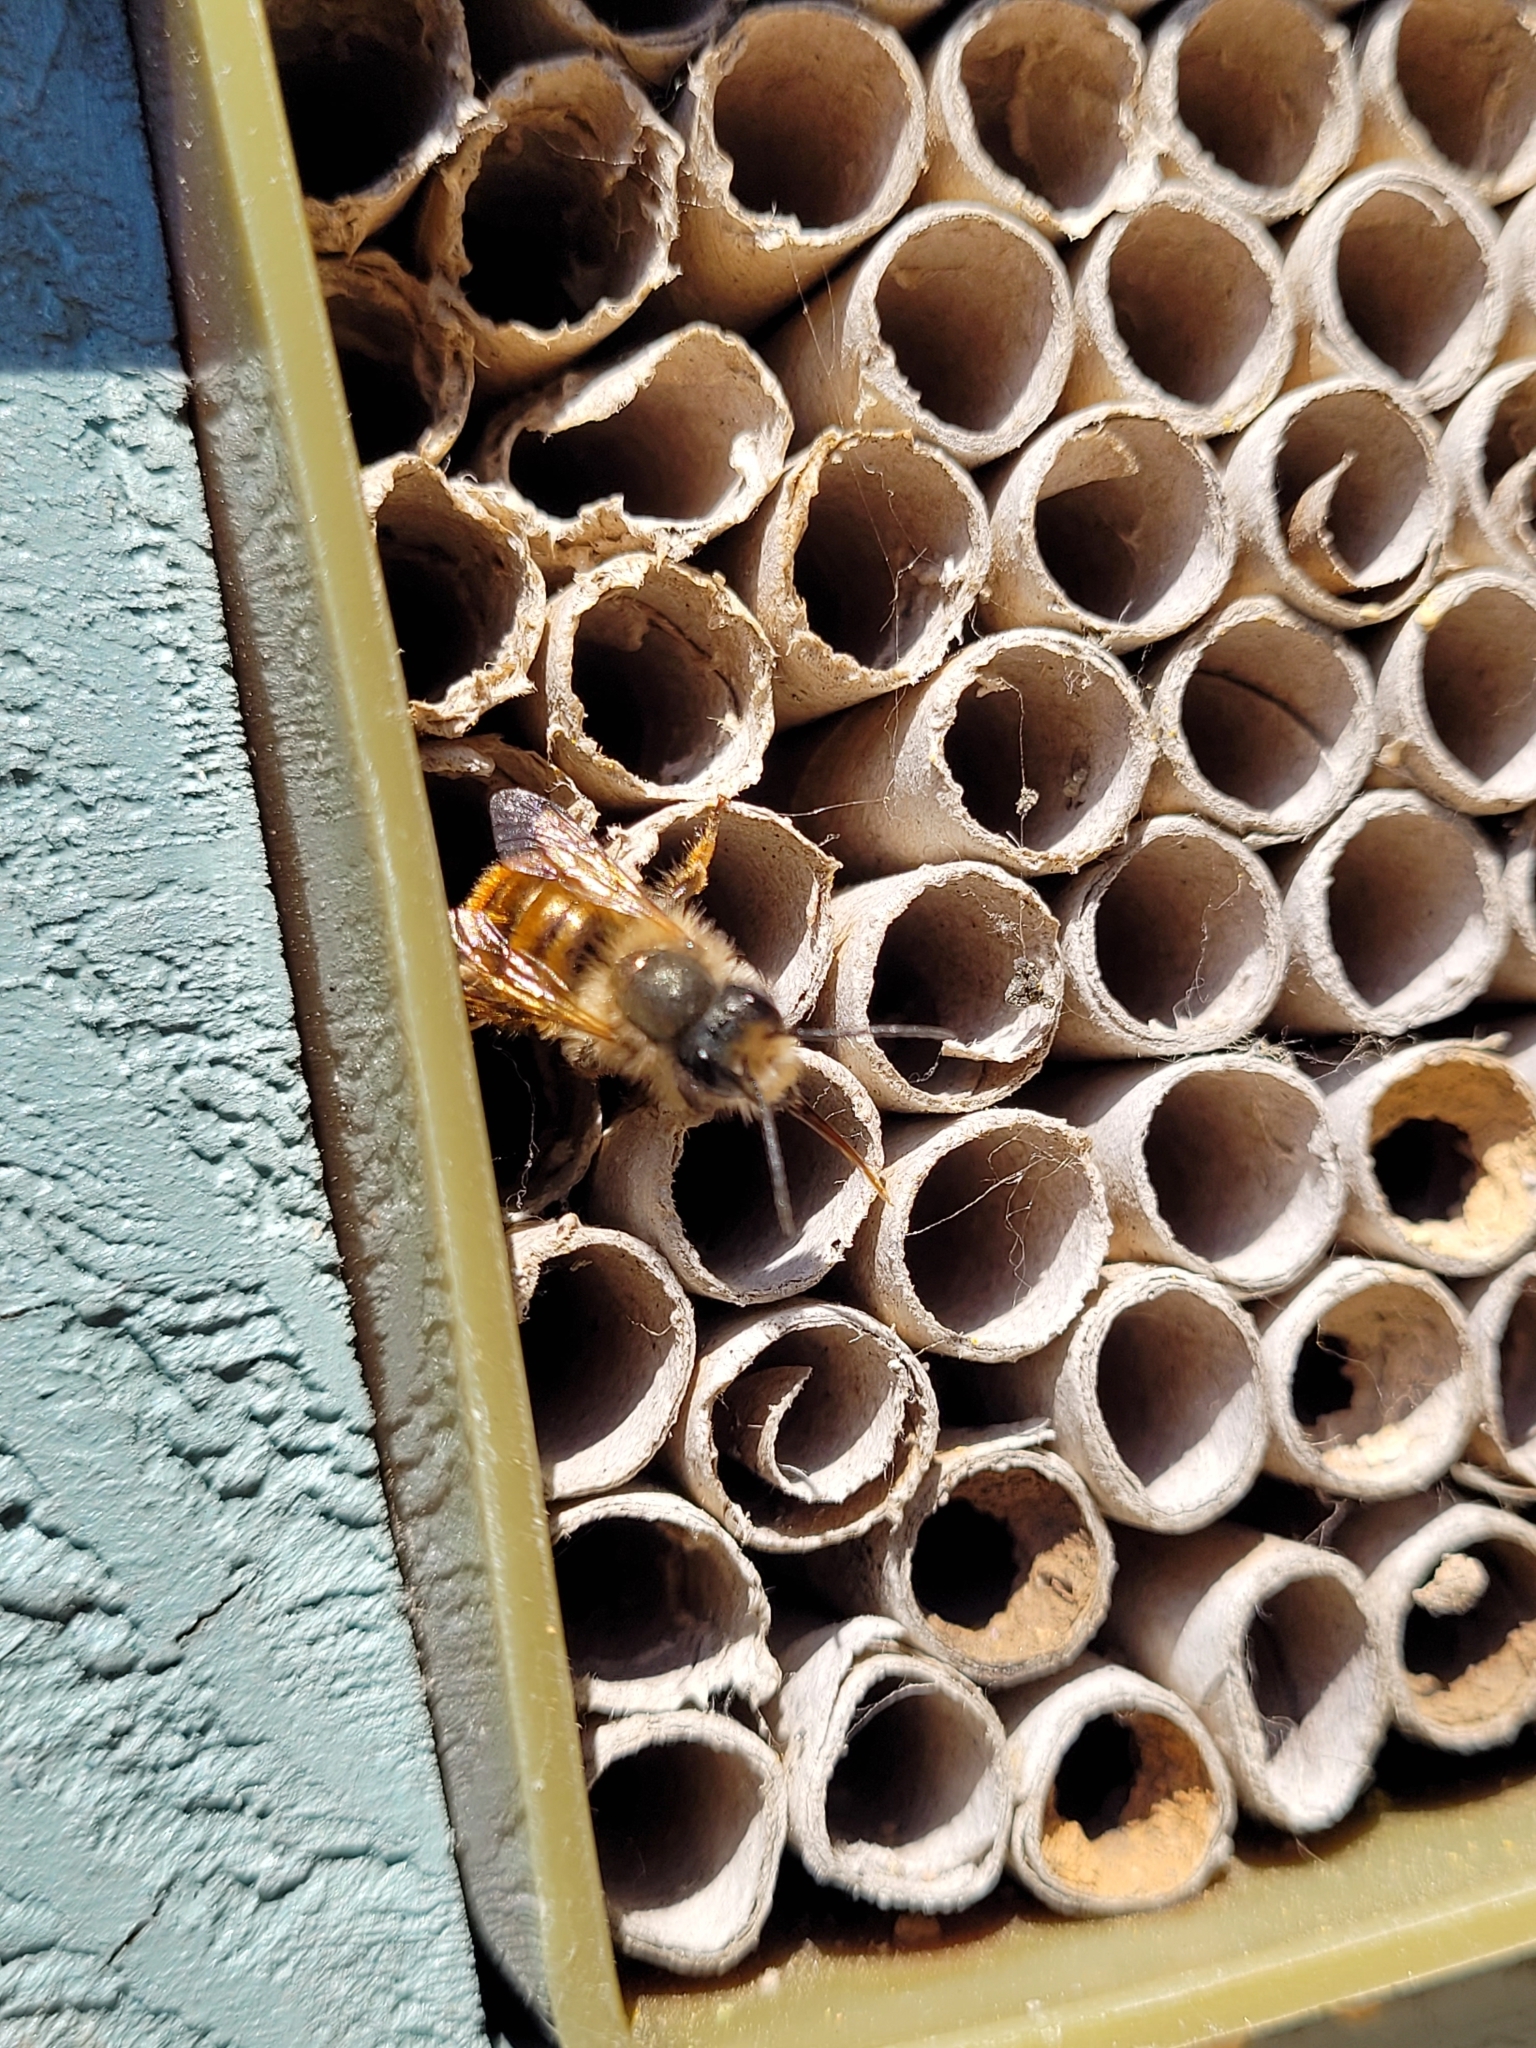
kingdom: Animalia
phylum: Arthropoda
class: Insecta
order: Hymenoptera
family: Megachilidae
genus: Osmia
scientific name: Osmia bicornis
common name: Red mason bee
